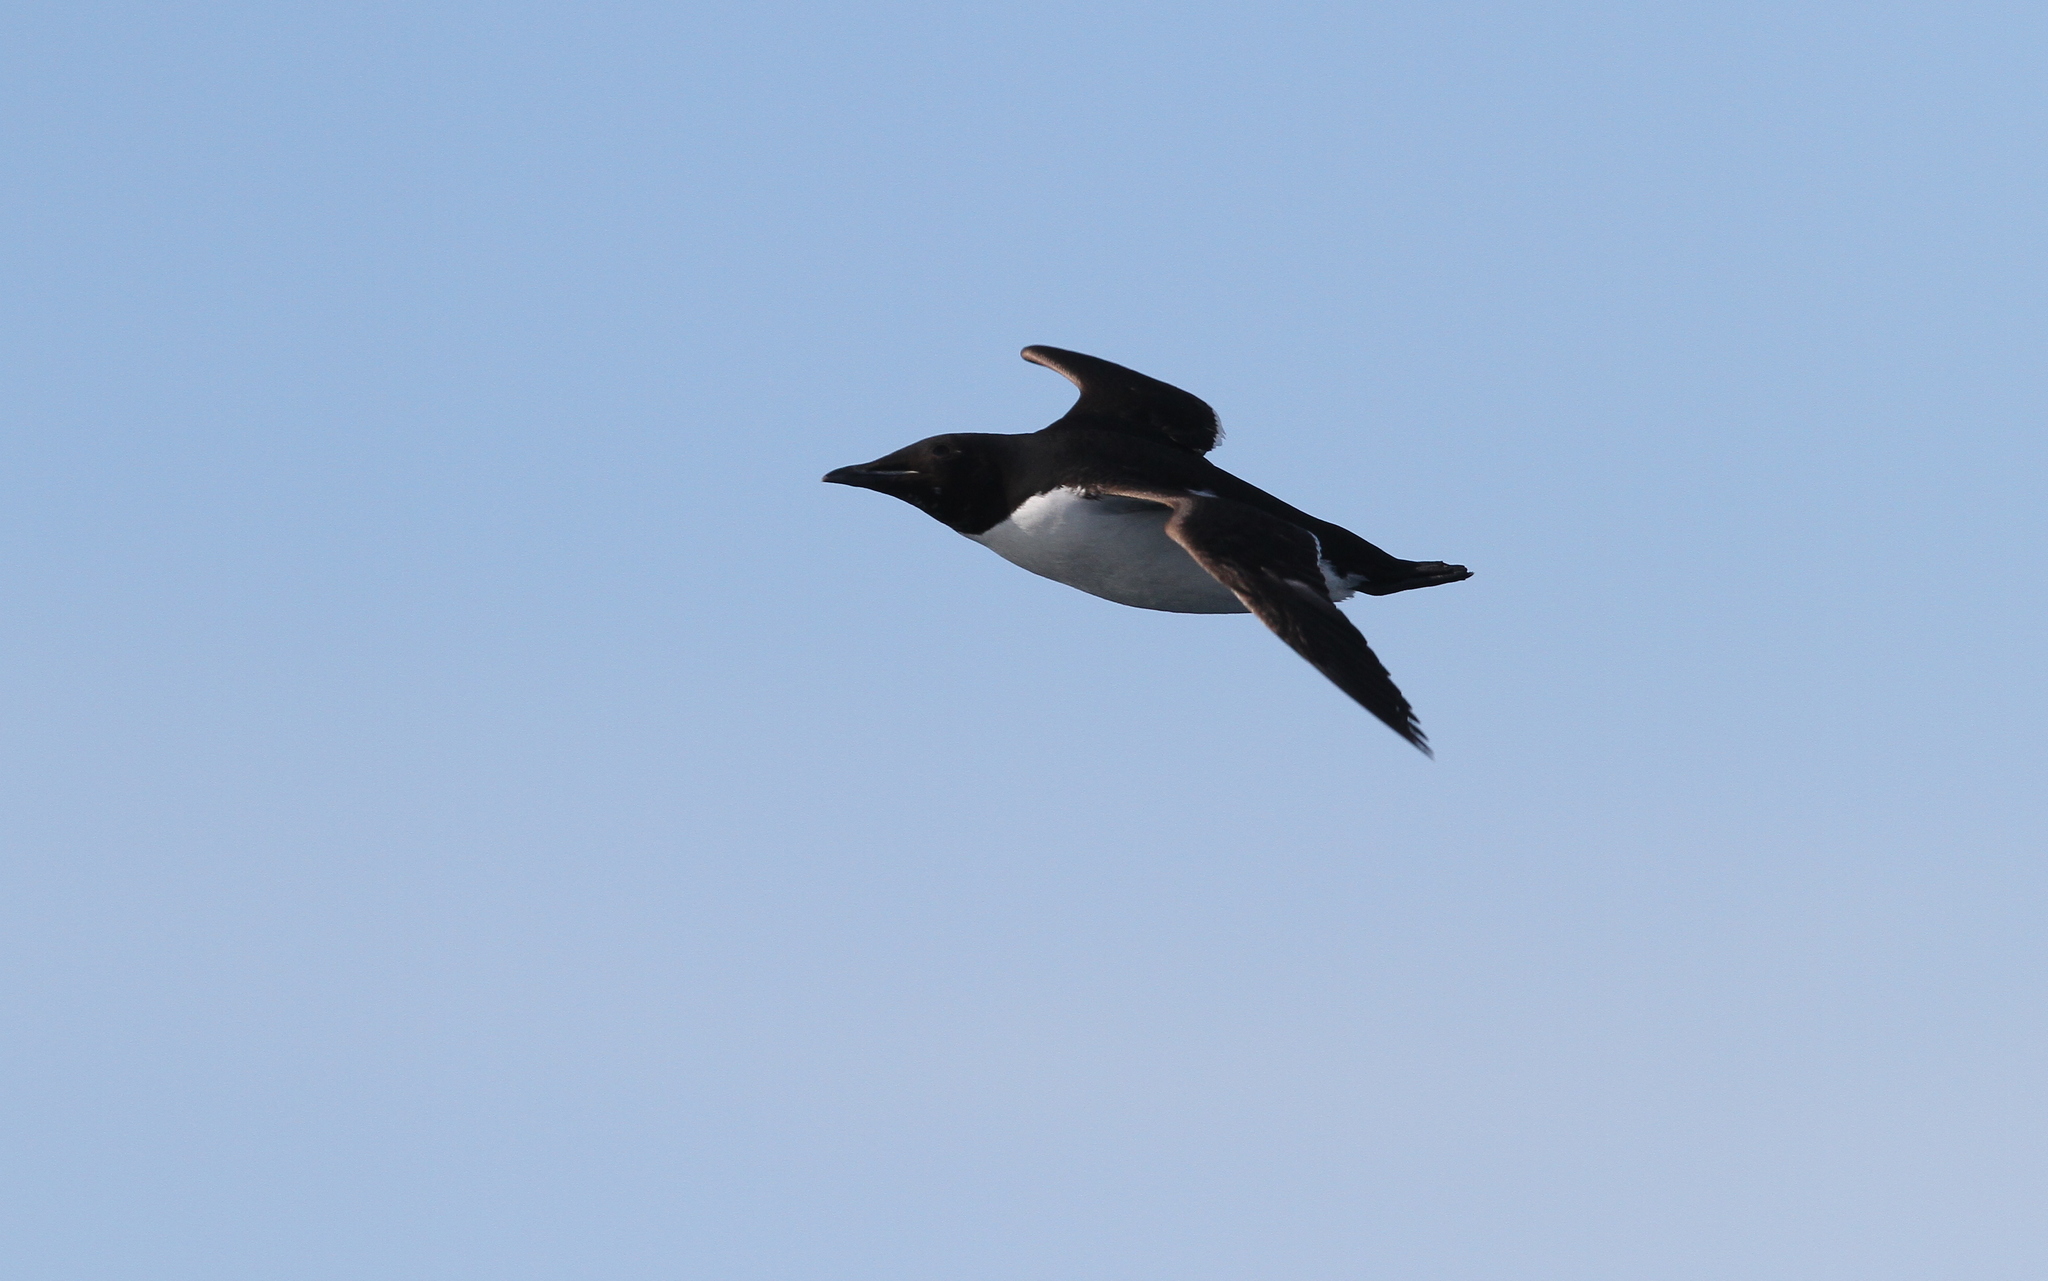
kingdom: Animalia
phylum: Chordata
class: Aves
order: Charadriiformes
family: Alcidae
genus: Uria
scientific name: Uria lomvia
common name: Thick-billed murre
